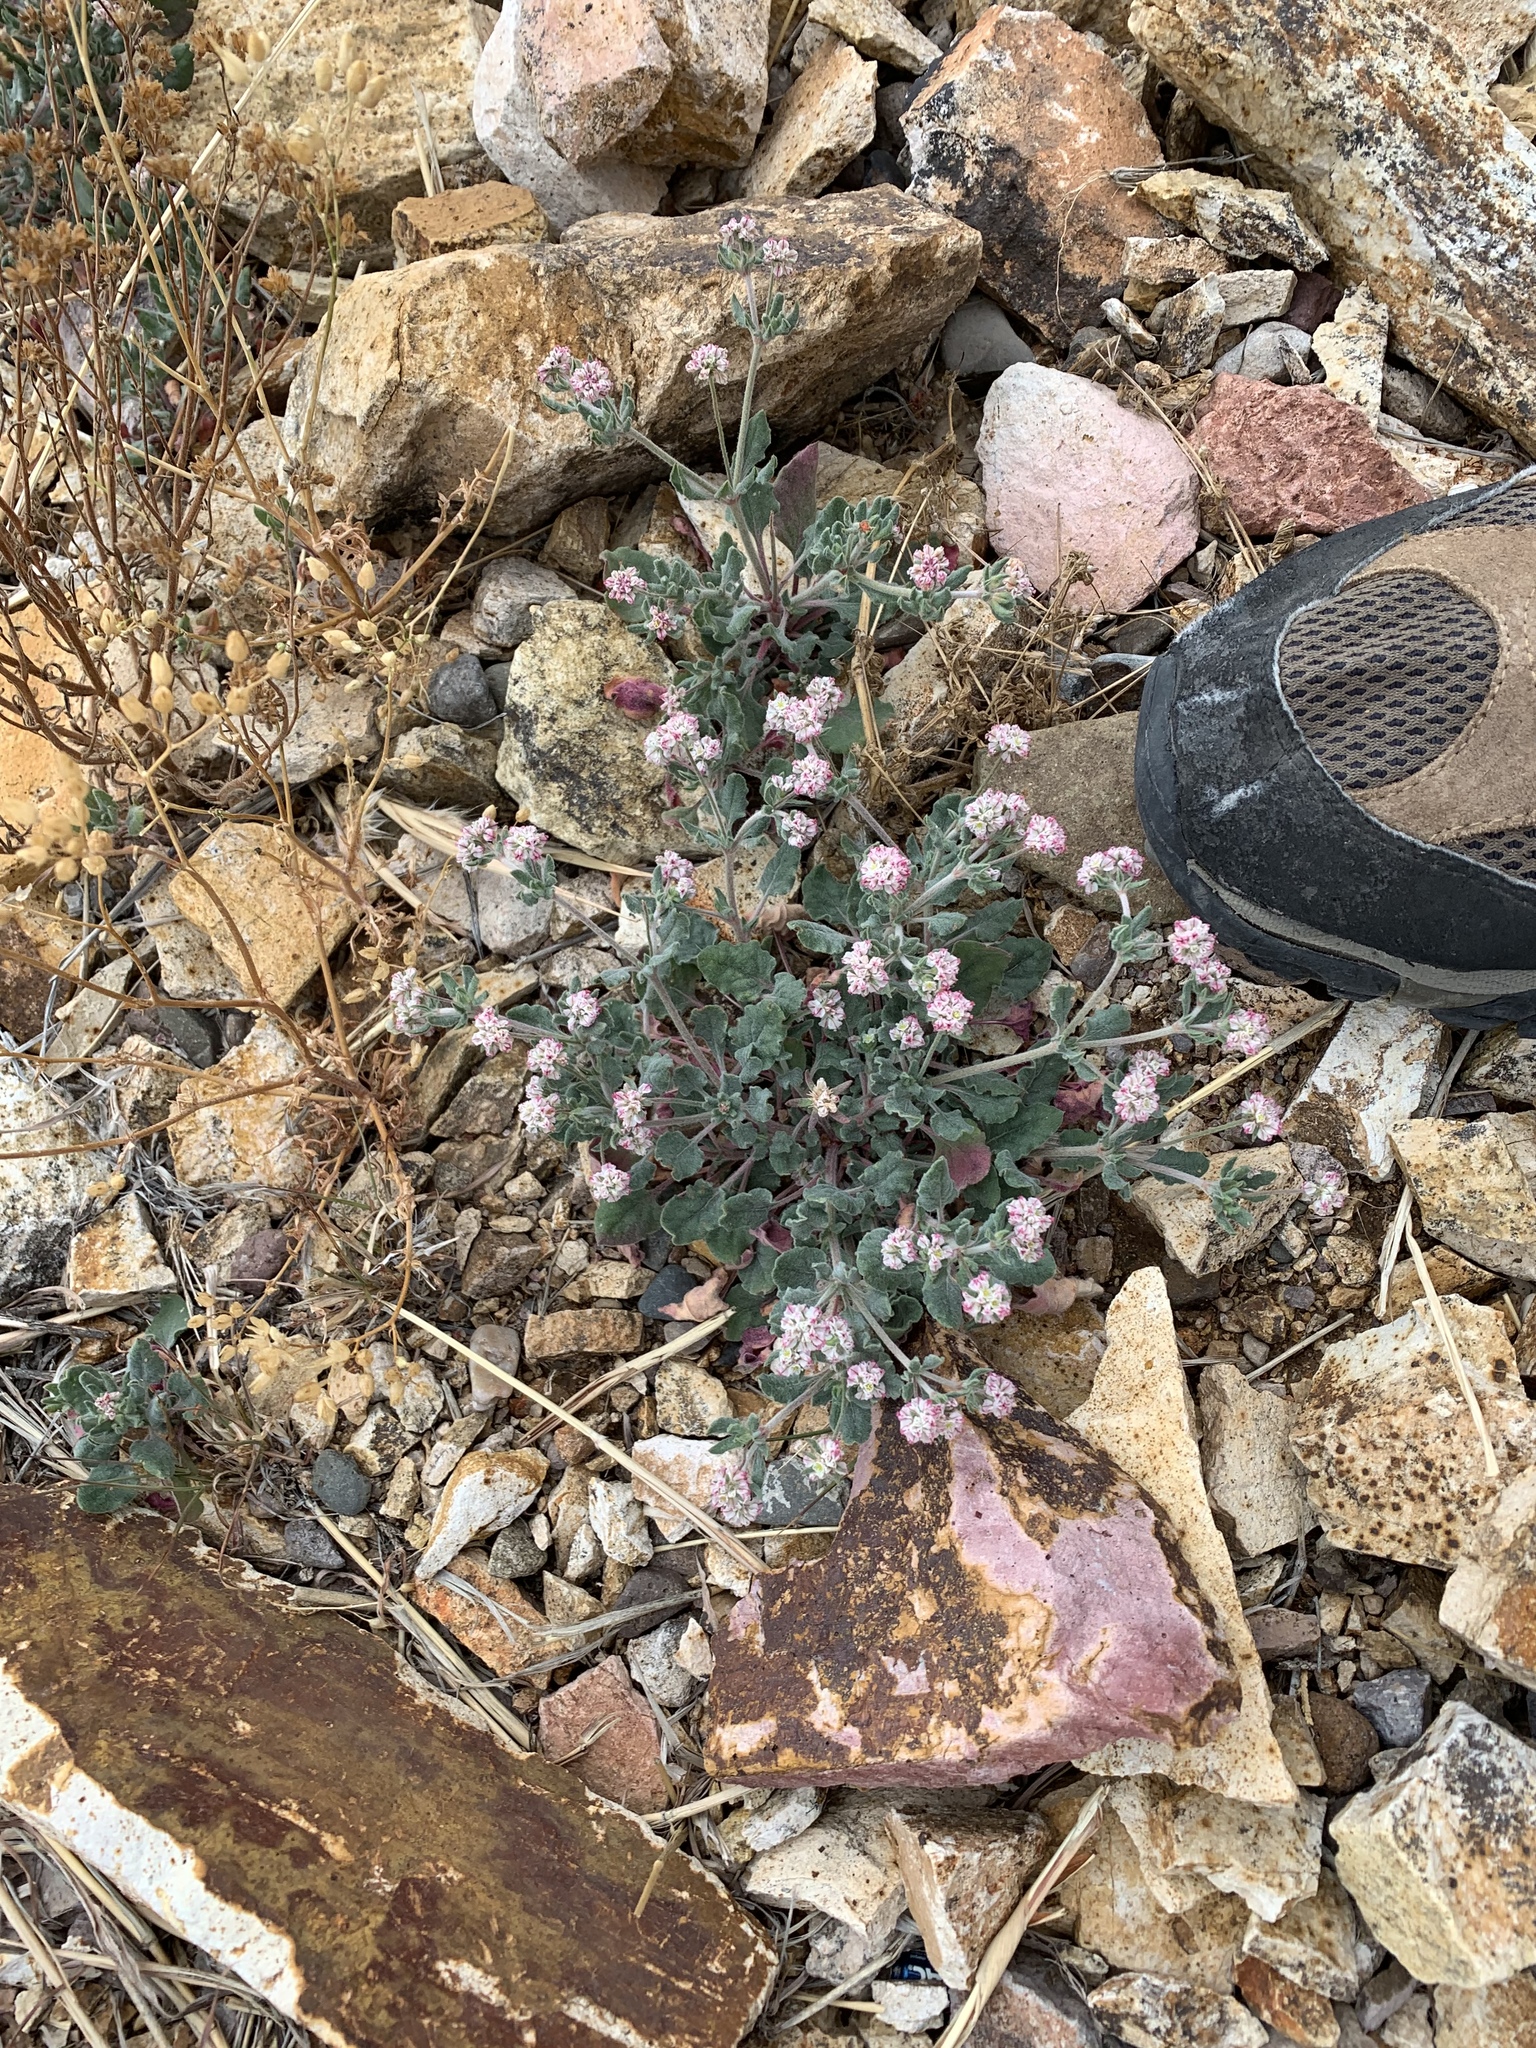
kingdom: Plantae
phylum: Tracheophyta
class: Magnoliopsida
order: Caryophyllales
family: Polygonaceae
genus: Eriogonum
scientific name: Eriogonum abertianum
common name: Abert's wild buckwheat
